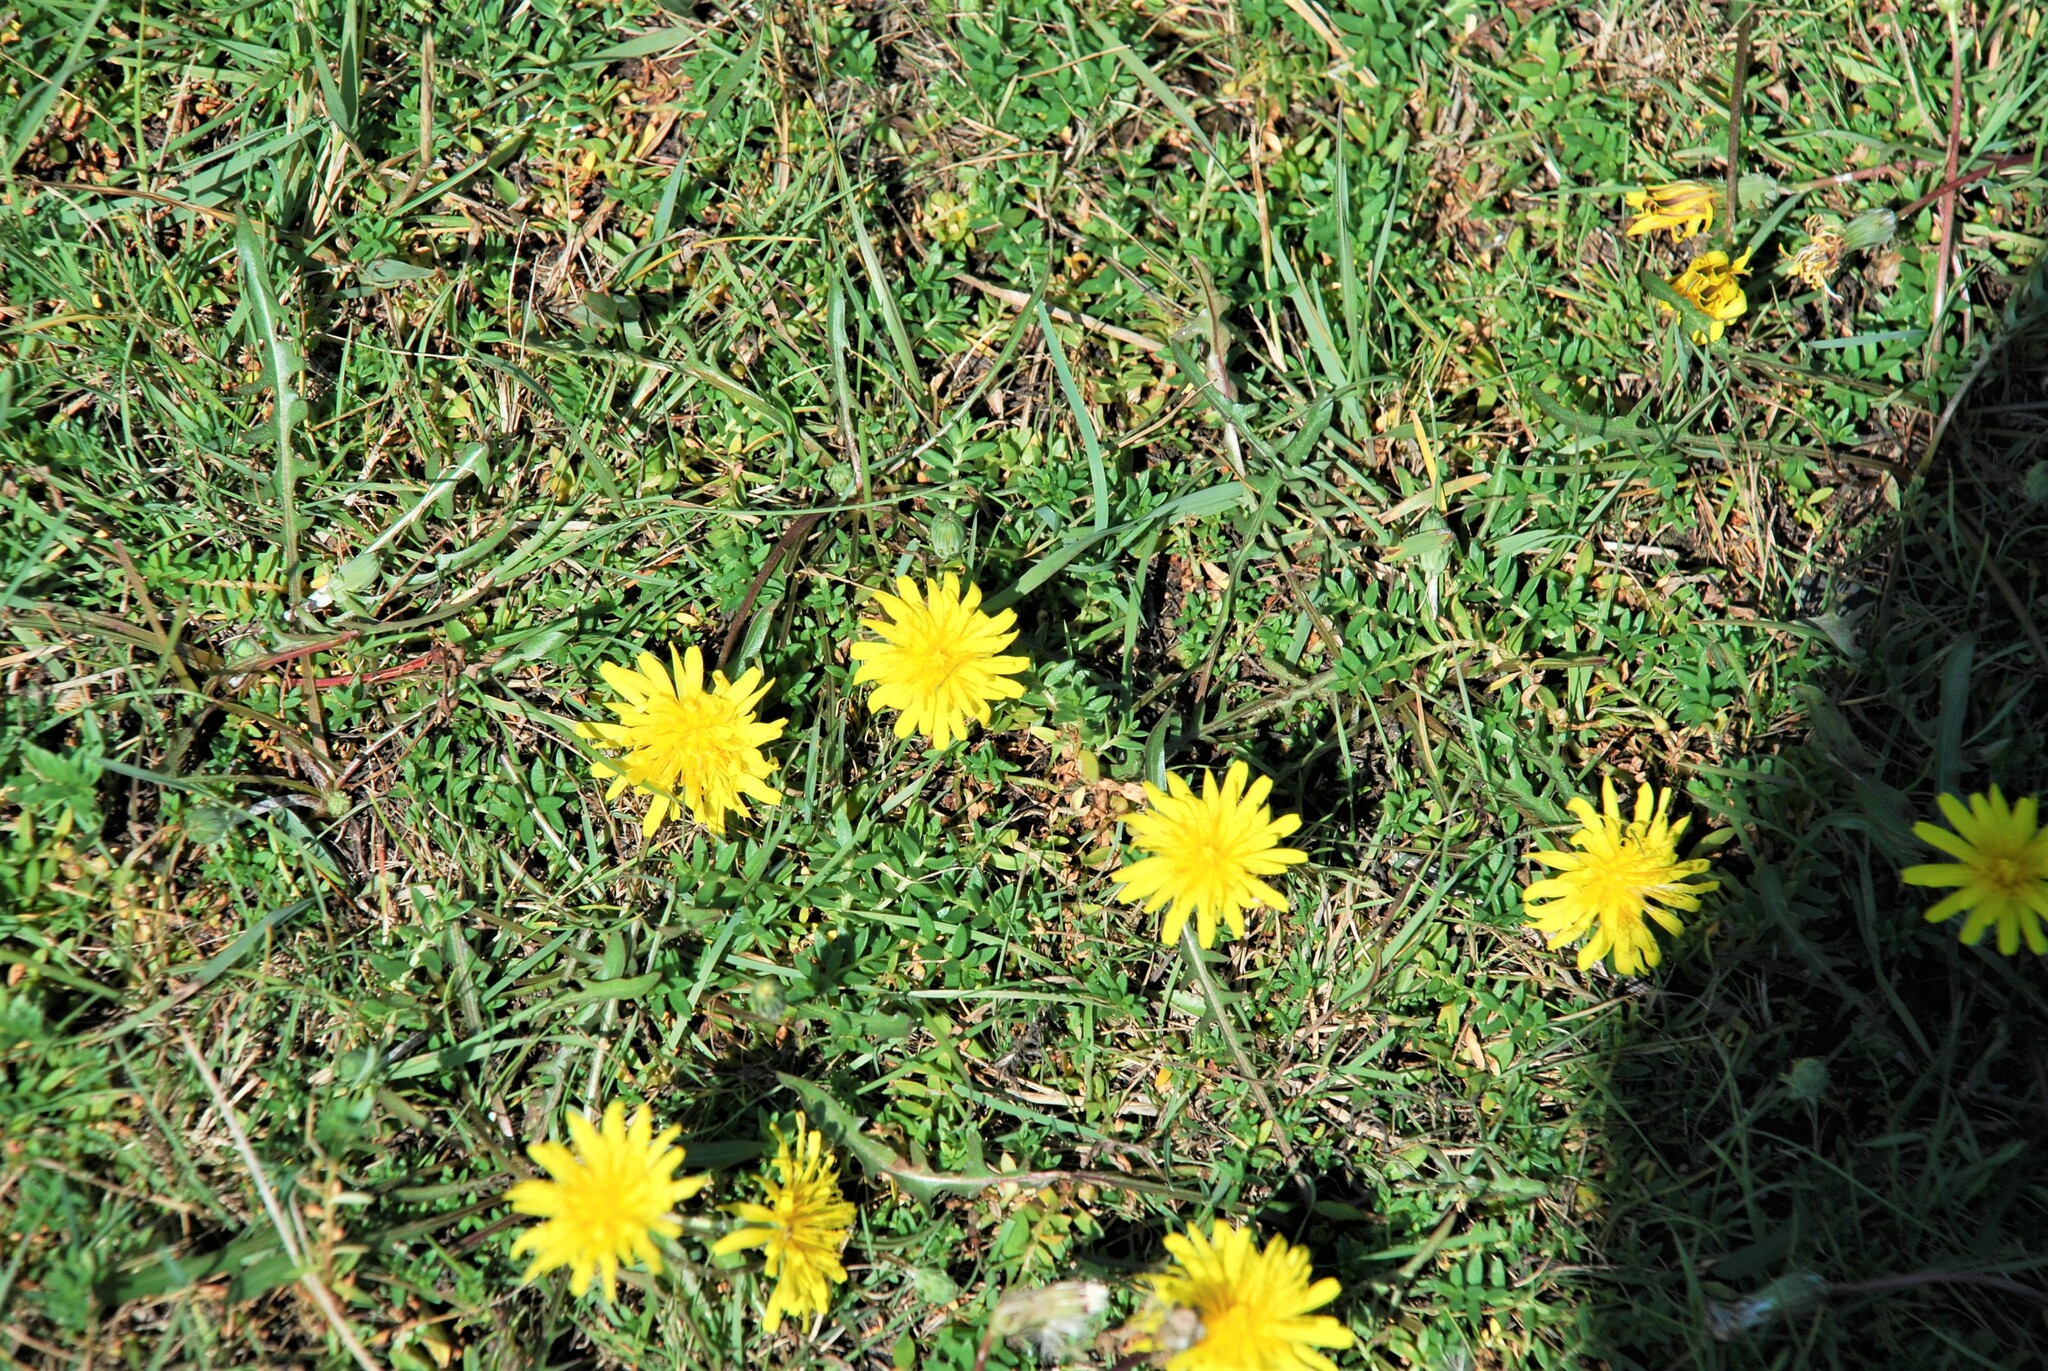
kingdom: Plantae
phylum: Tracheophyta
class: Magnoliopsida
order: Asterales
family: Asteraceae
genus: Taraxacum
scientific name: Taraxacum officinale
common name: Common dandelion
